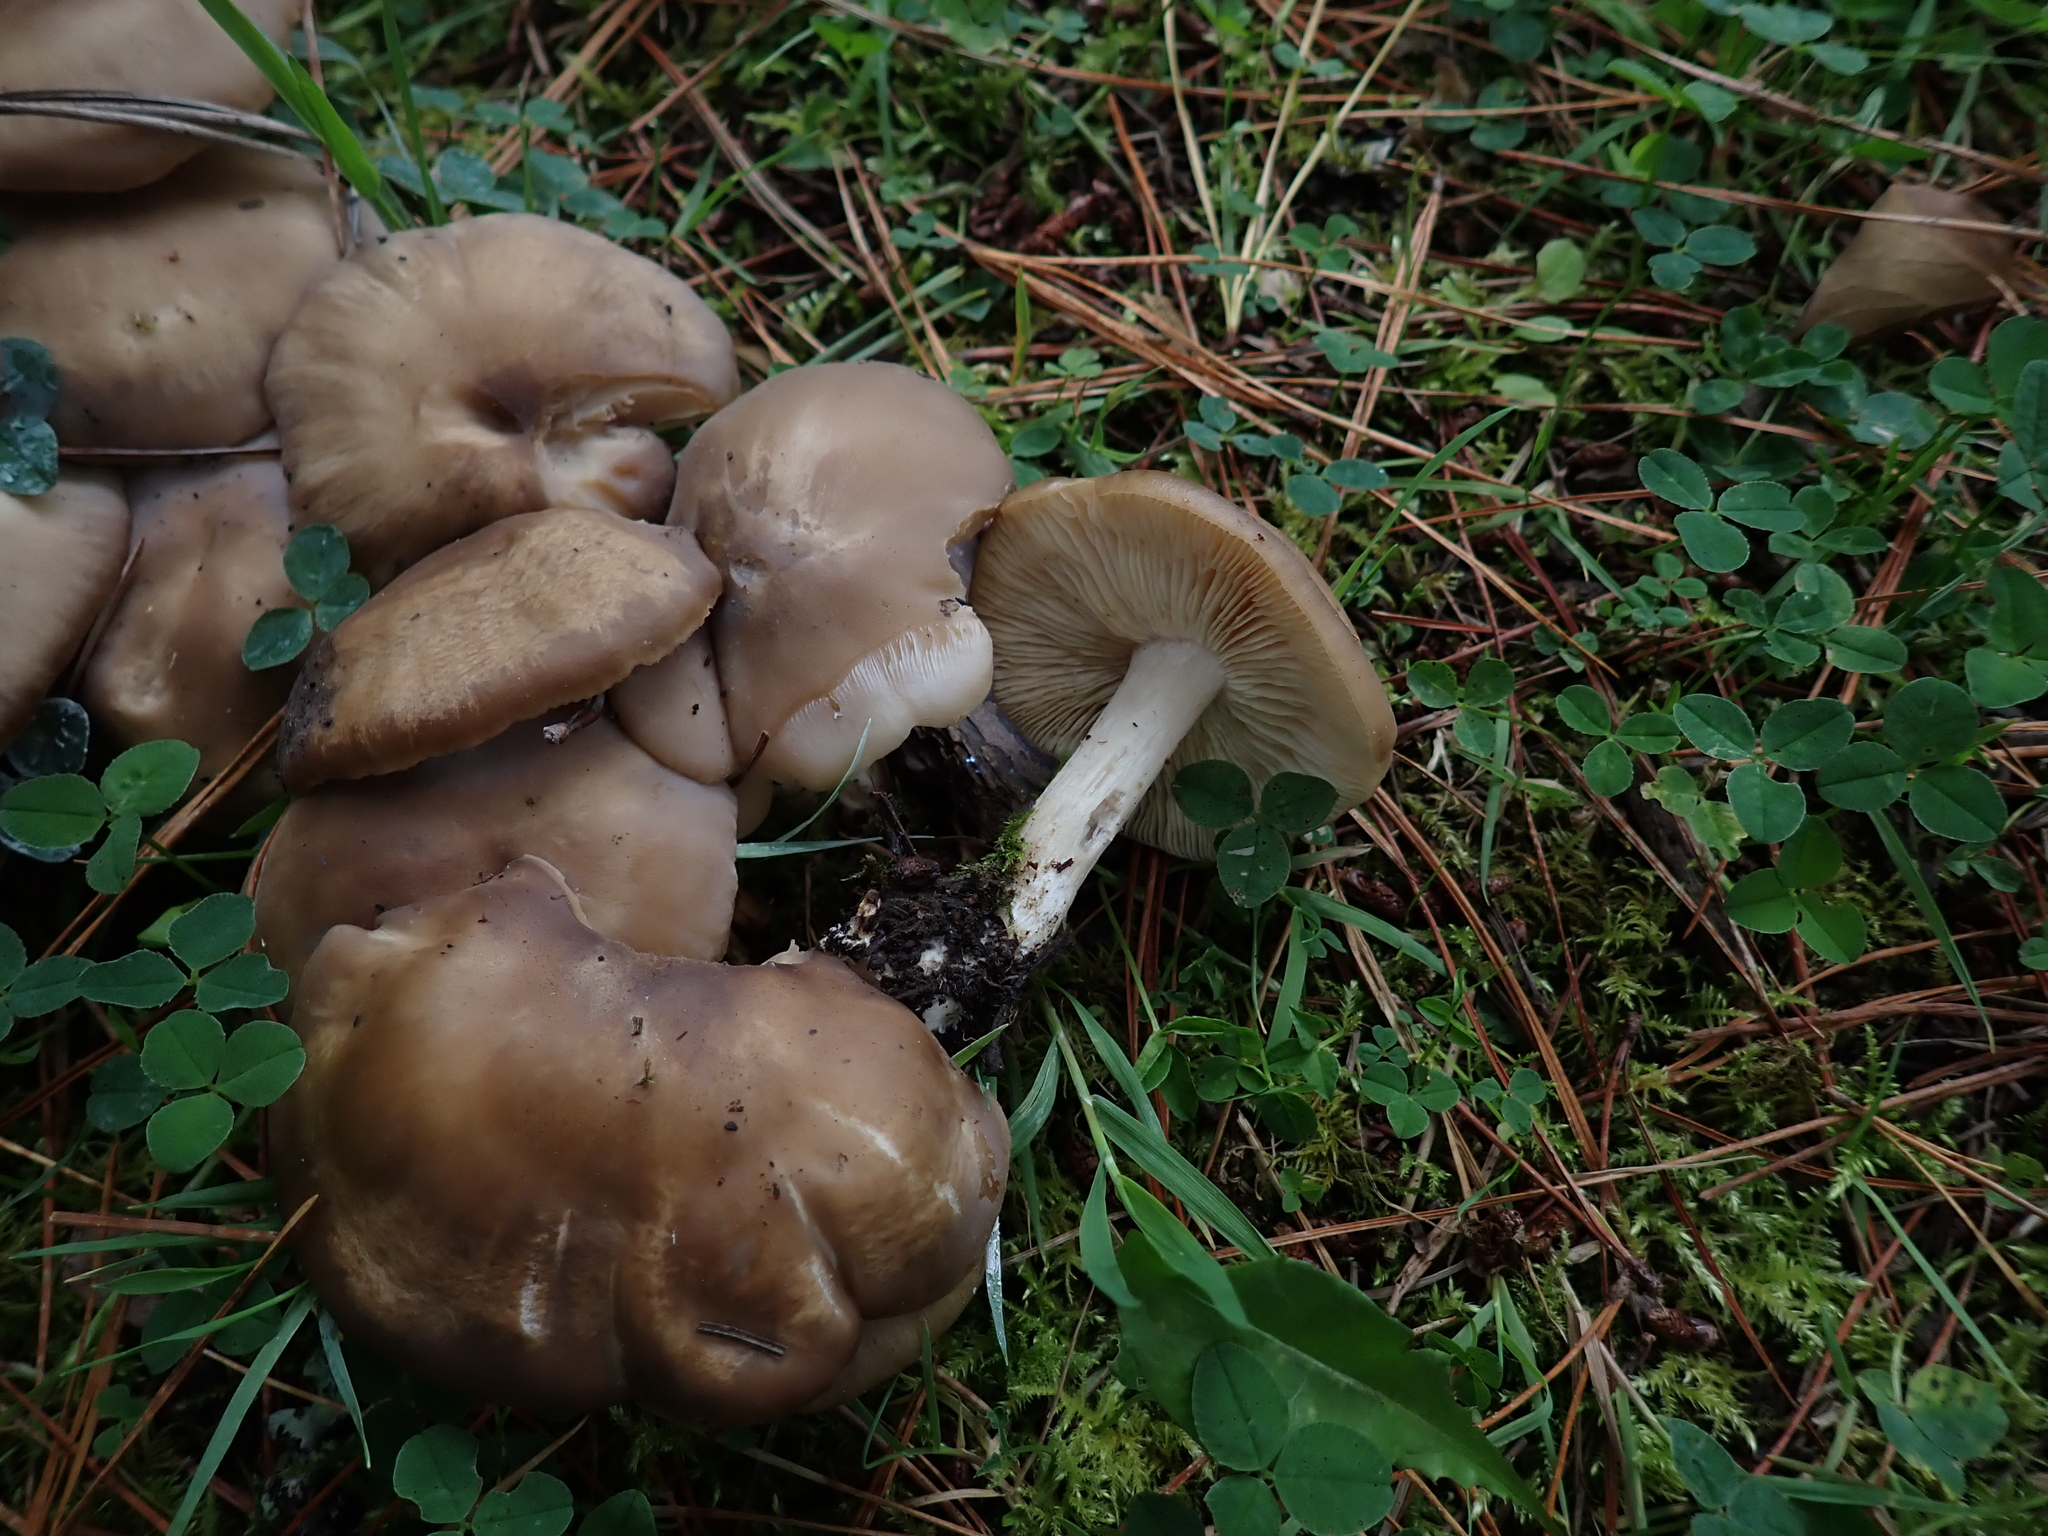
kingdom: Fungi
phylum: Basidiomycota
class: Agaricomycetes
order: Agaricales
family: Lyophyllaceae
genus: Lyophyllum
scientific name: Lyophyllum decastes
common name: Clustered domecap
